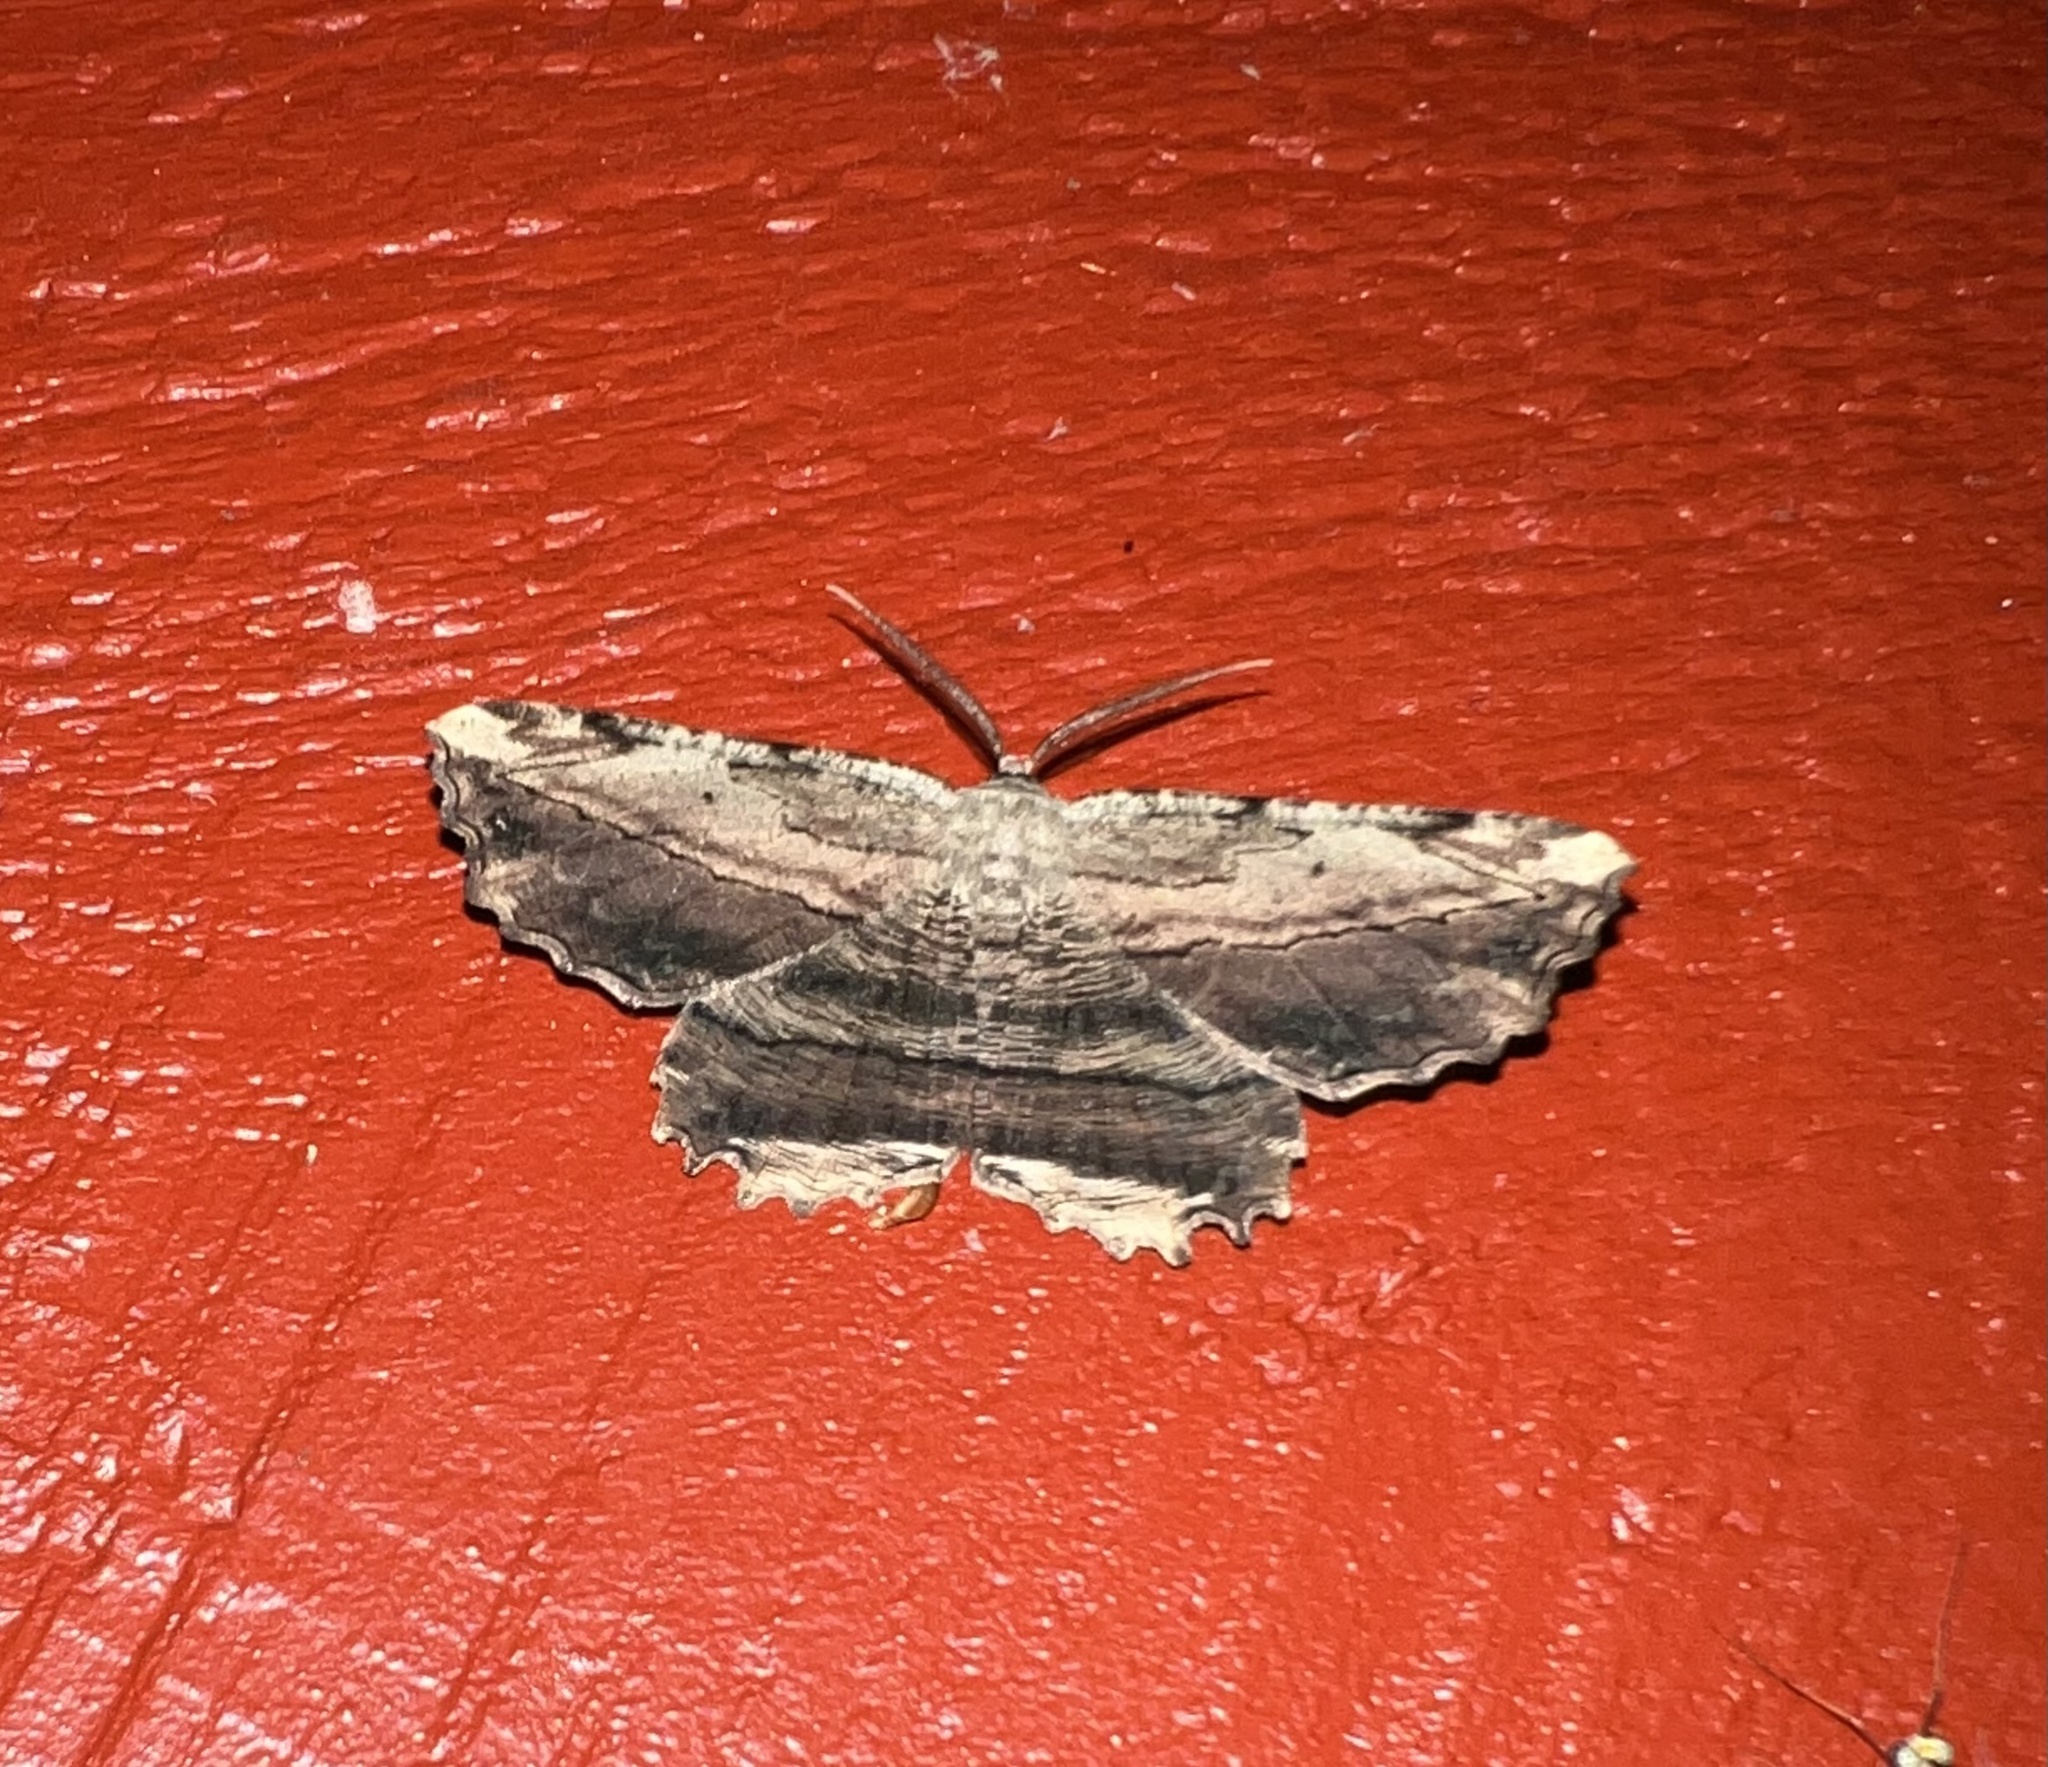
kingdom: Animalia
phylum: Arthropoda
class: Insecta
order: Lepidoptera
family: Geometridae
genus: Lytrosis
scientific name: Lytrosis unitaria
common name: Common lytrosis
